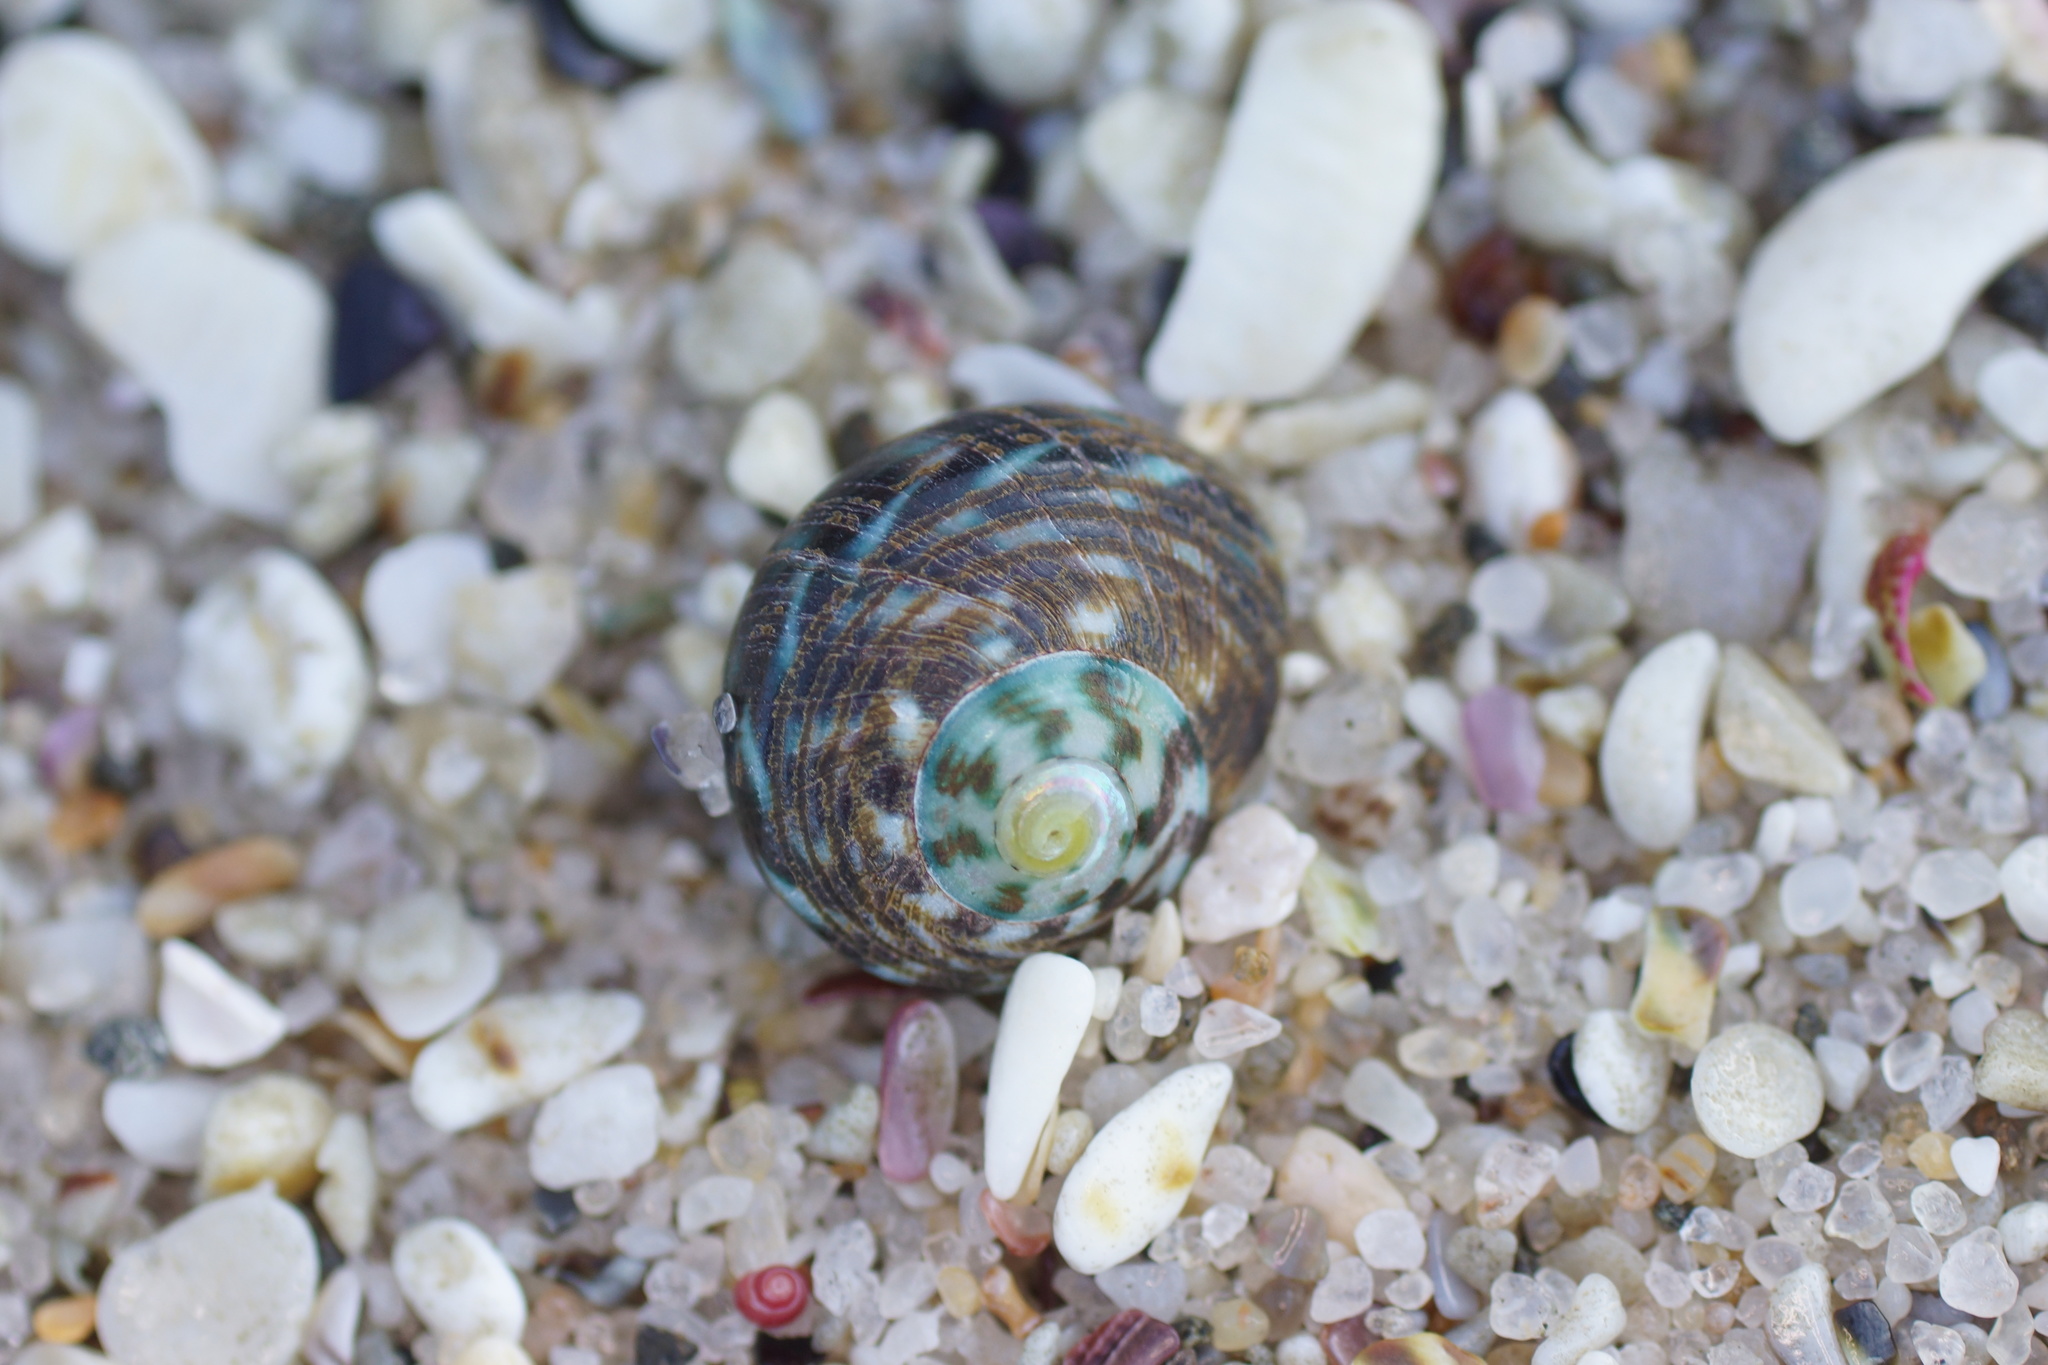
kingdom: Animalia
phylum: Mollusca
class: Gastropoda
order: Trochida
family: Turbinidae
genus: Lunella
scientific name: Lunella undulata
